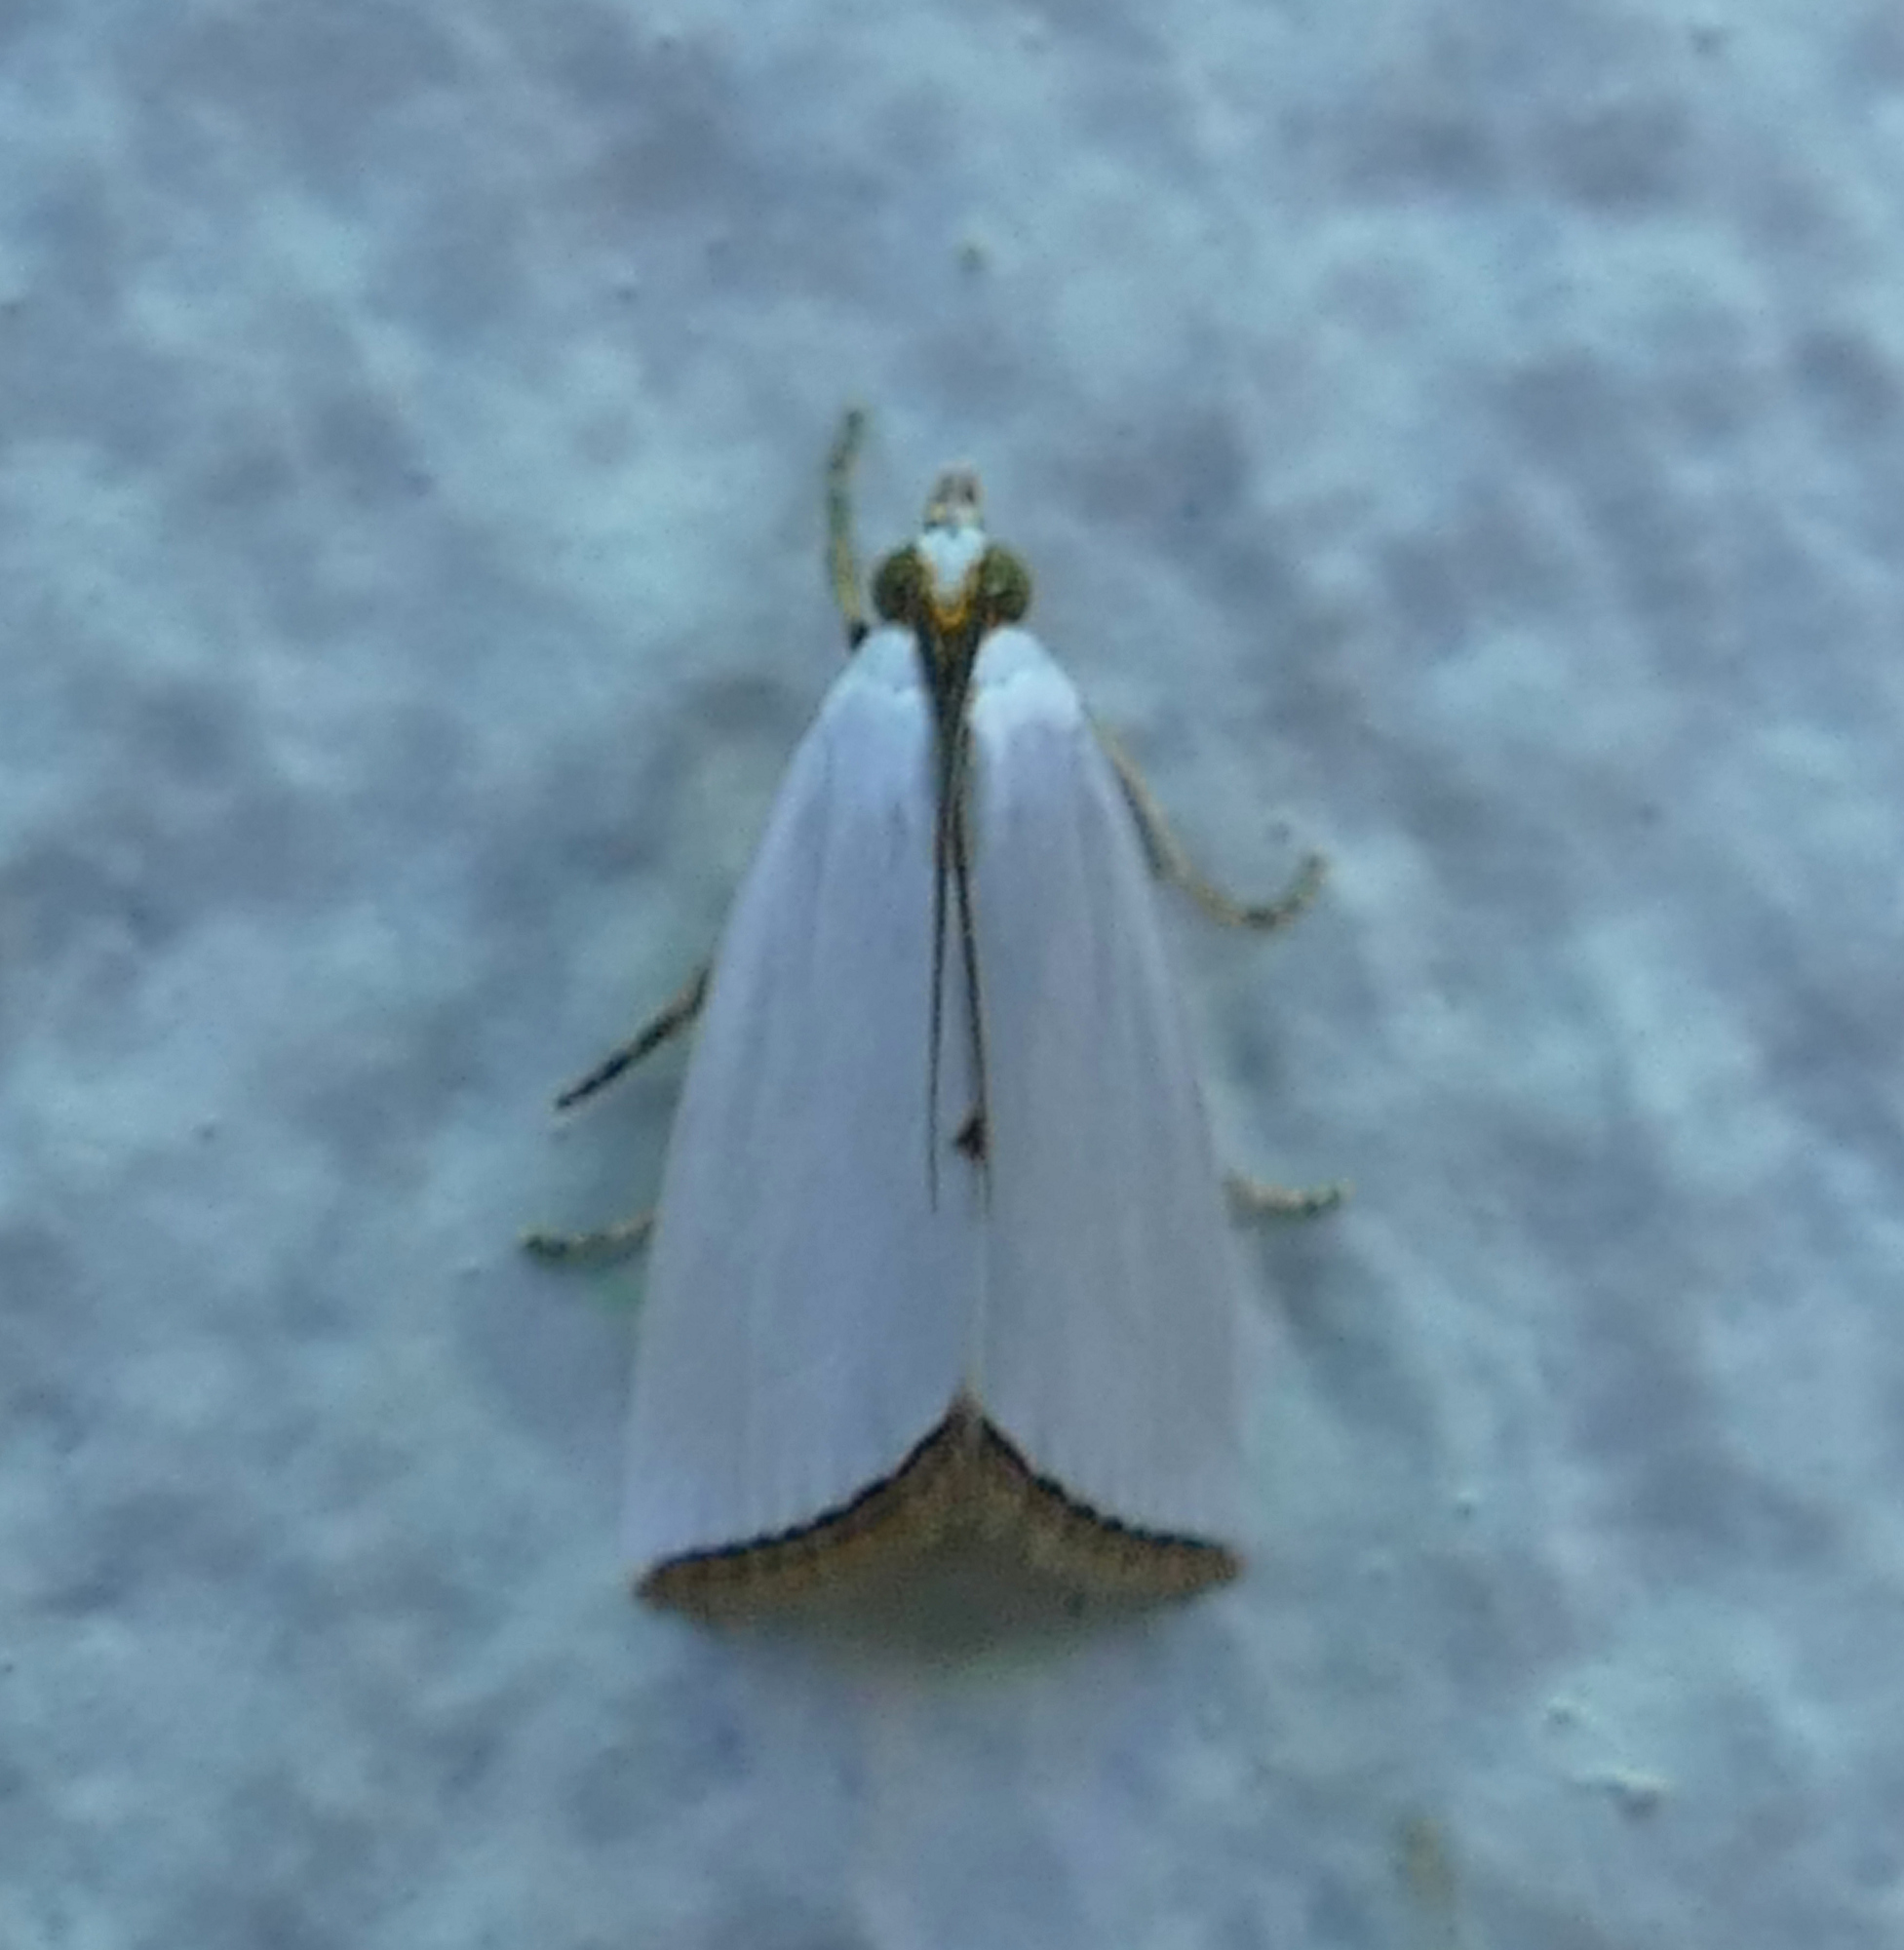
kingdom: Animalia
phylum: Arthropoda
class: Insecta
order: Lepidoptera
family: Crambidae
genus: Argyria
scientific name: Argyria nivalis
